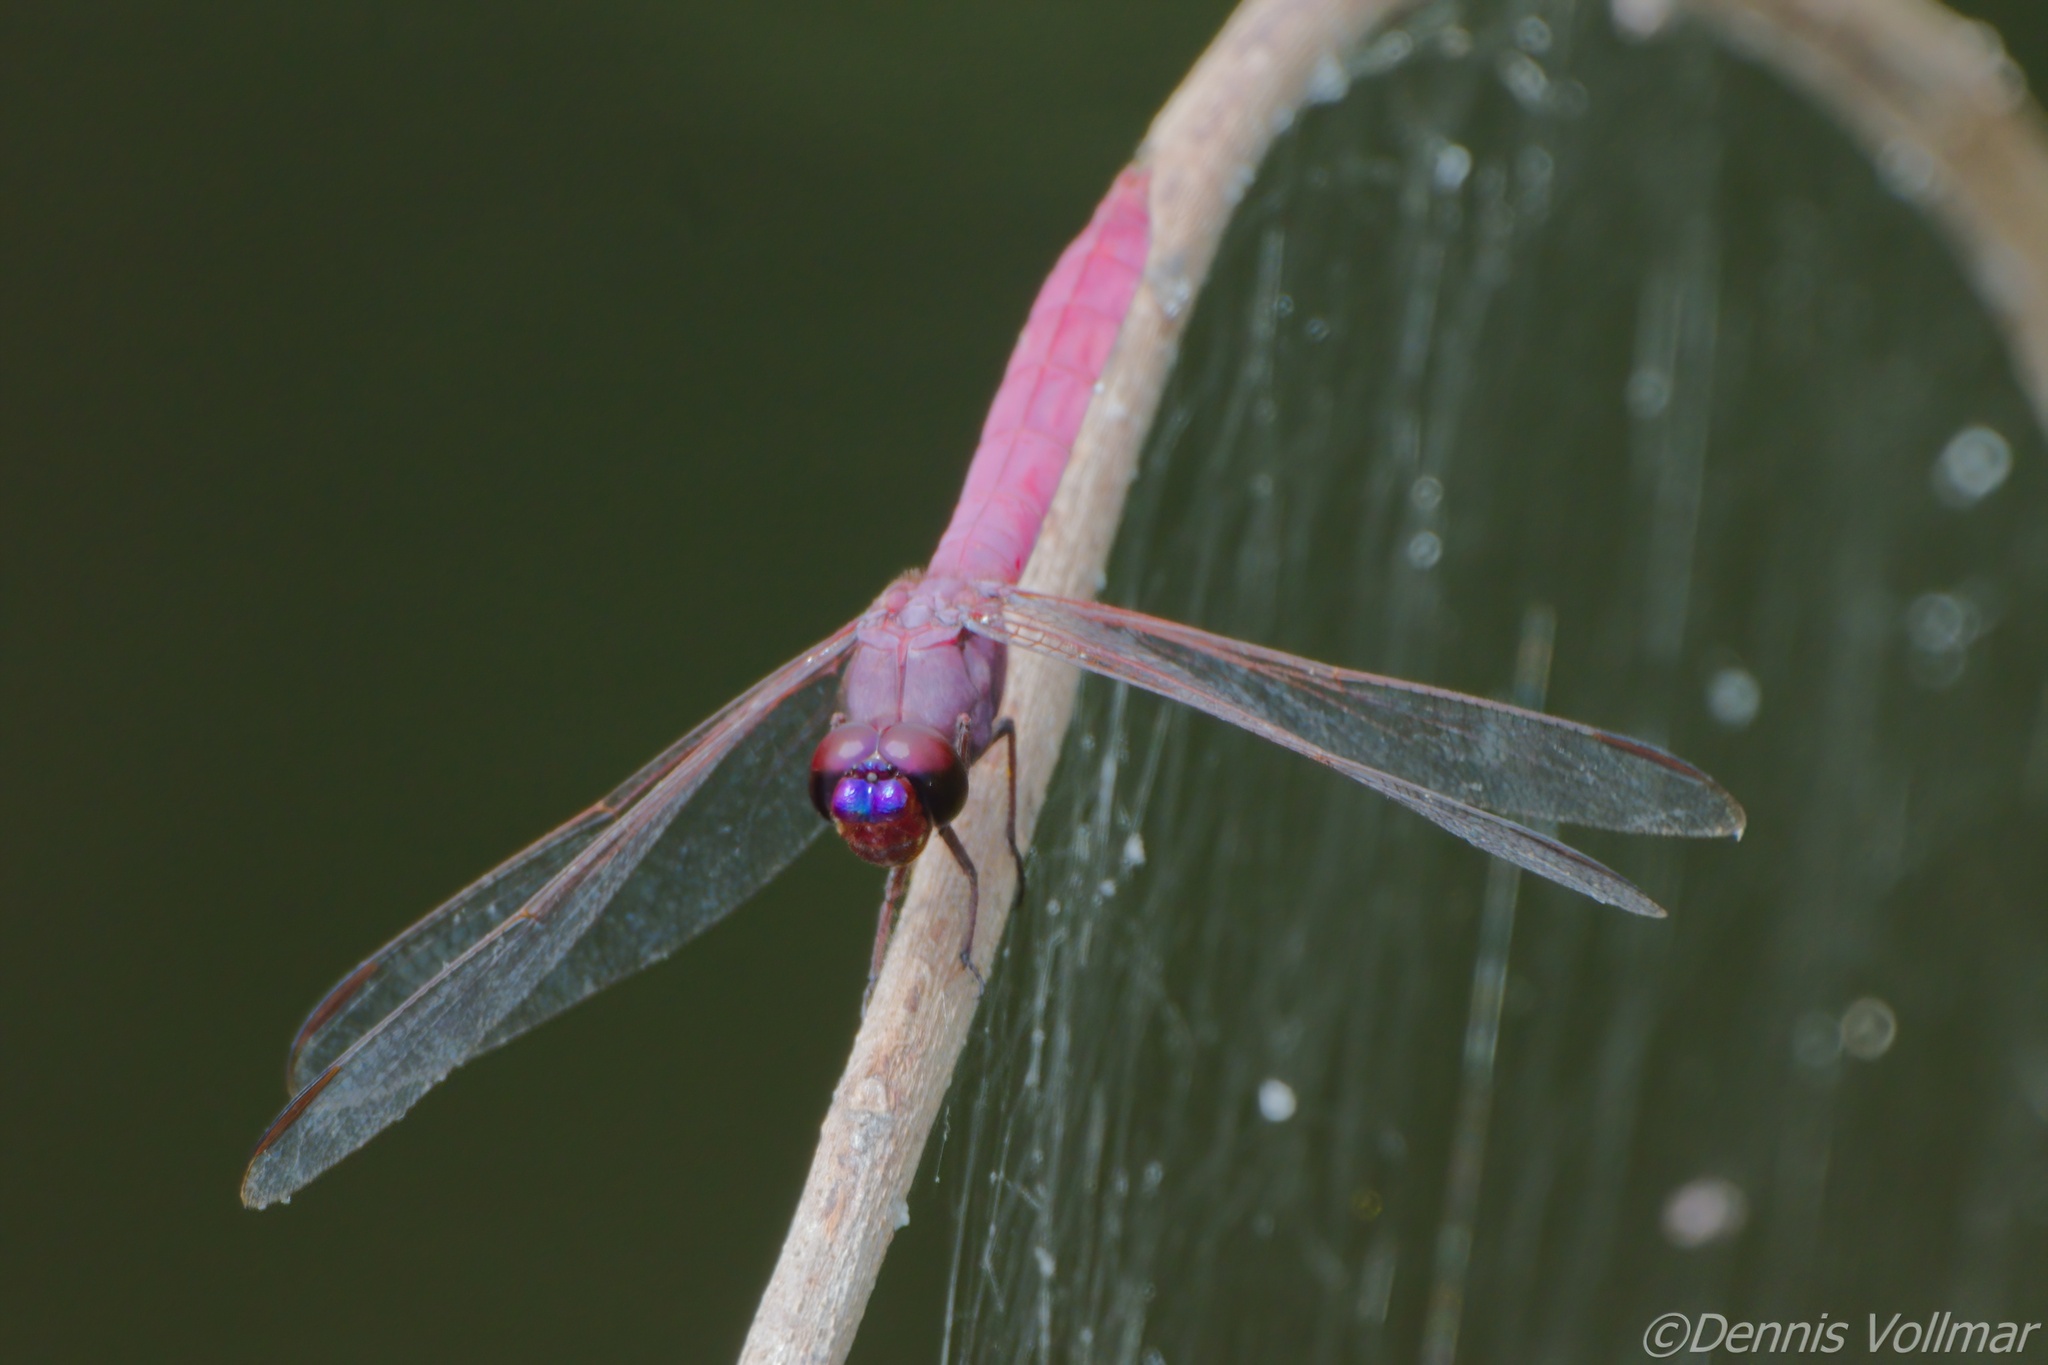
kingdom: Animalia
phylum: Arthropoda
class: Insecta
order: Odonata
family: Libellulidae
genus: Orthemis
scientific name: Orthemis ferruginea
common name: Roseate skimmer
